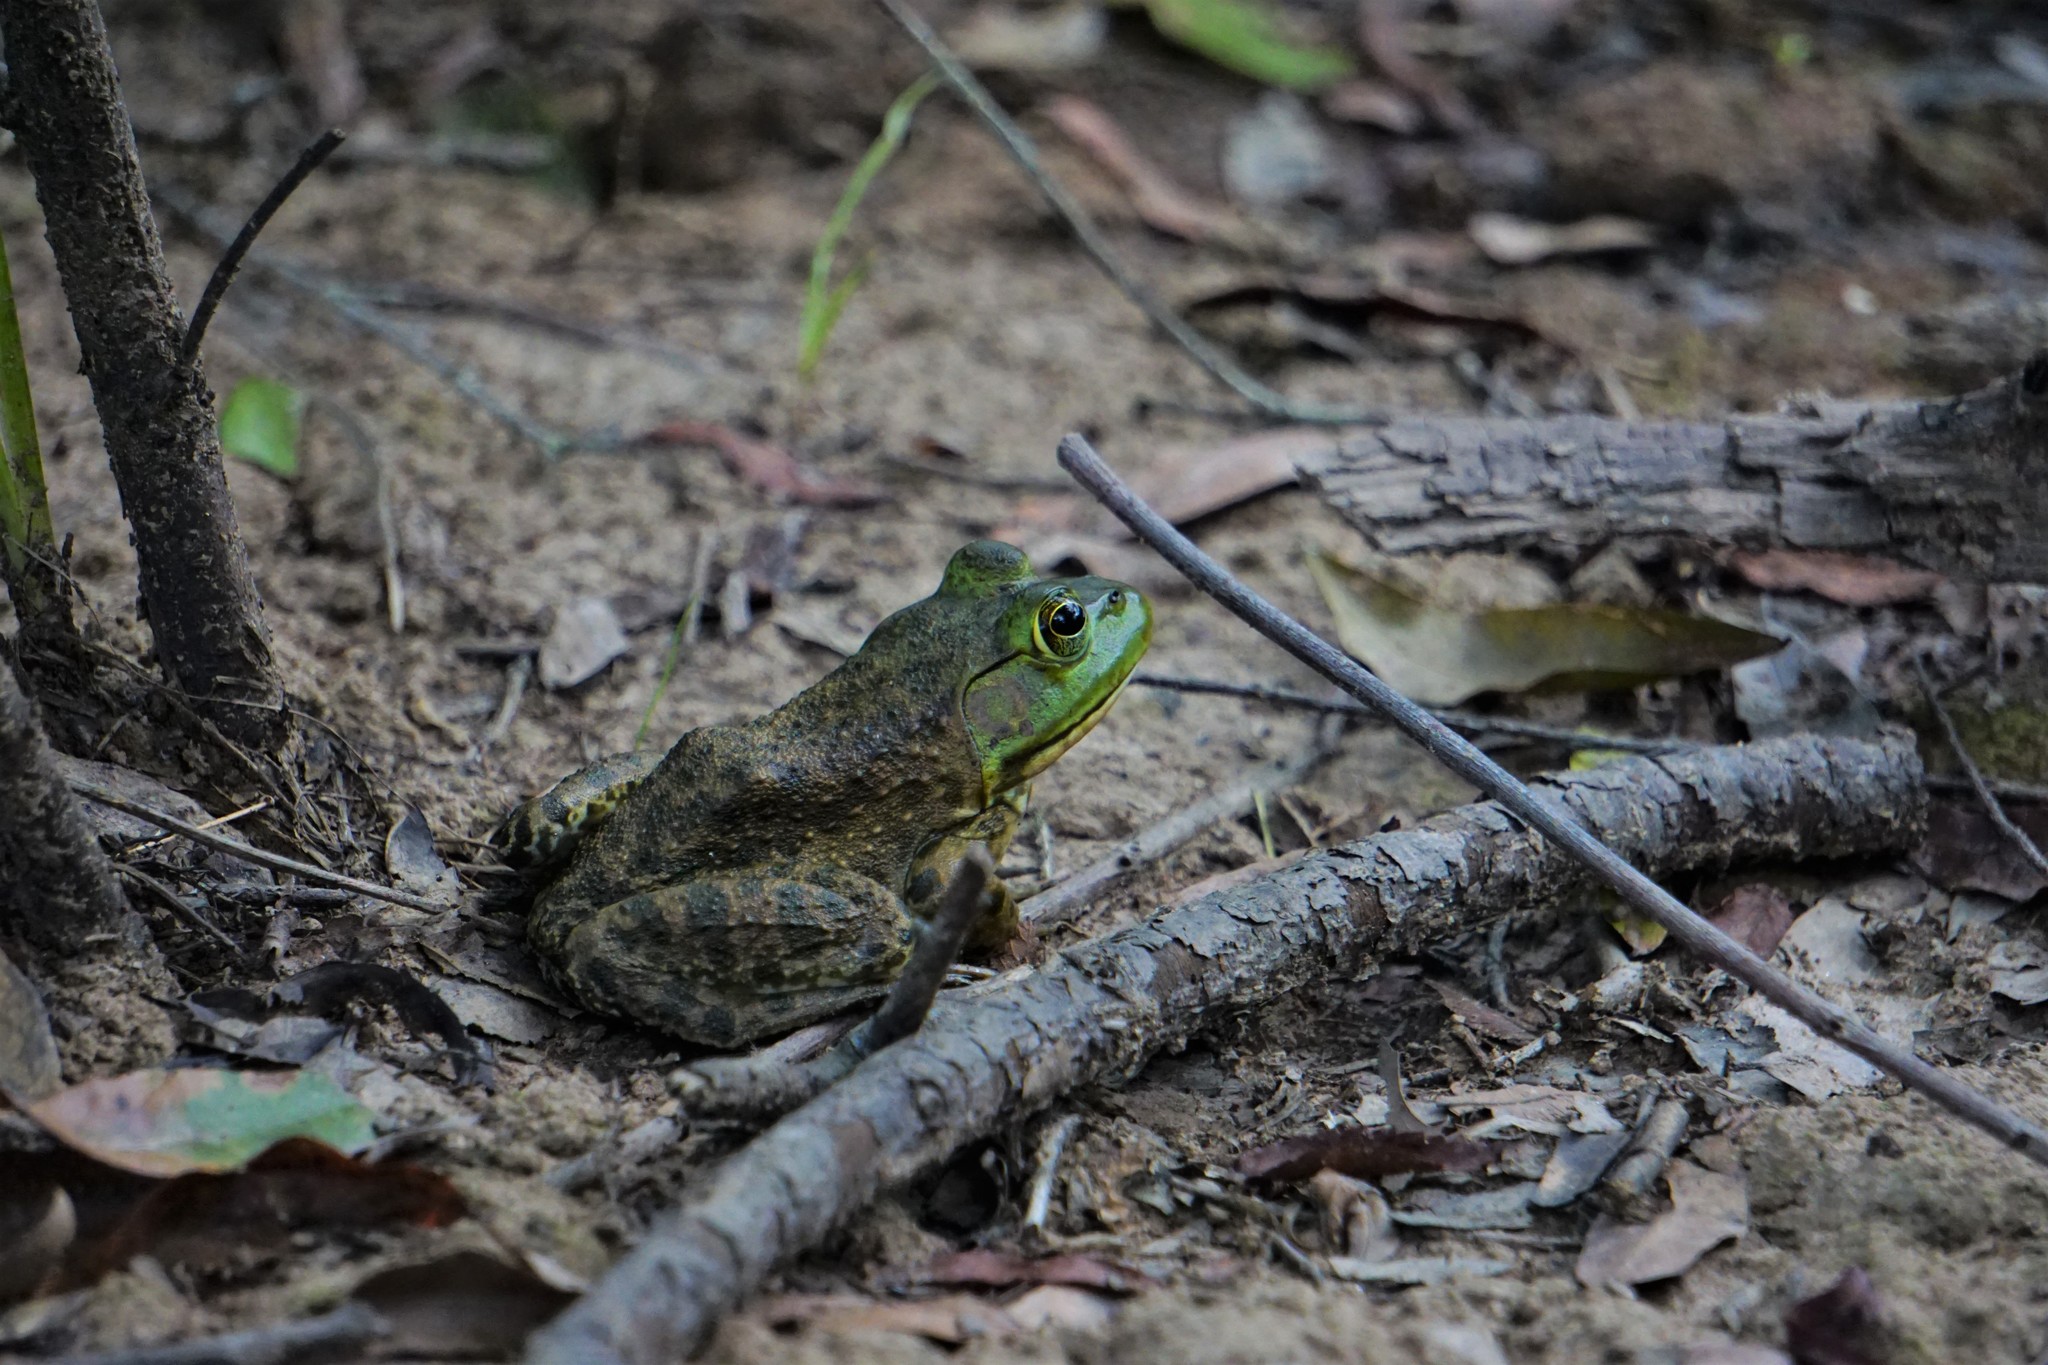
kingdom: Animalia
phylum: Chordata
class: Amphibia
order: Anura
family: Ranidae
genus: Lithobates
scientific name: Lithobates catesbeianus
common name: American bullfrog
